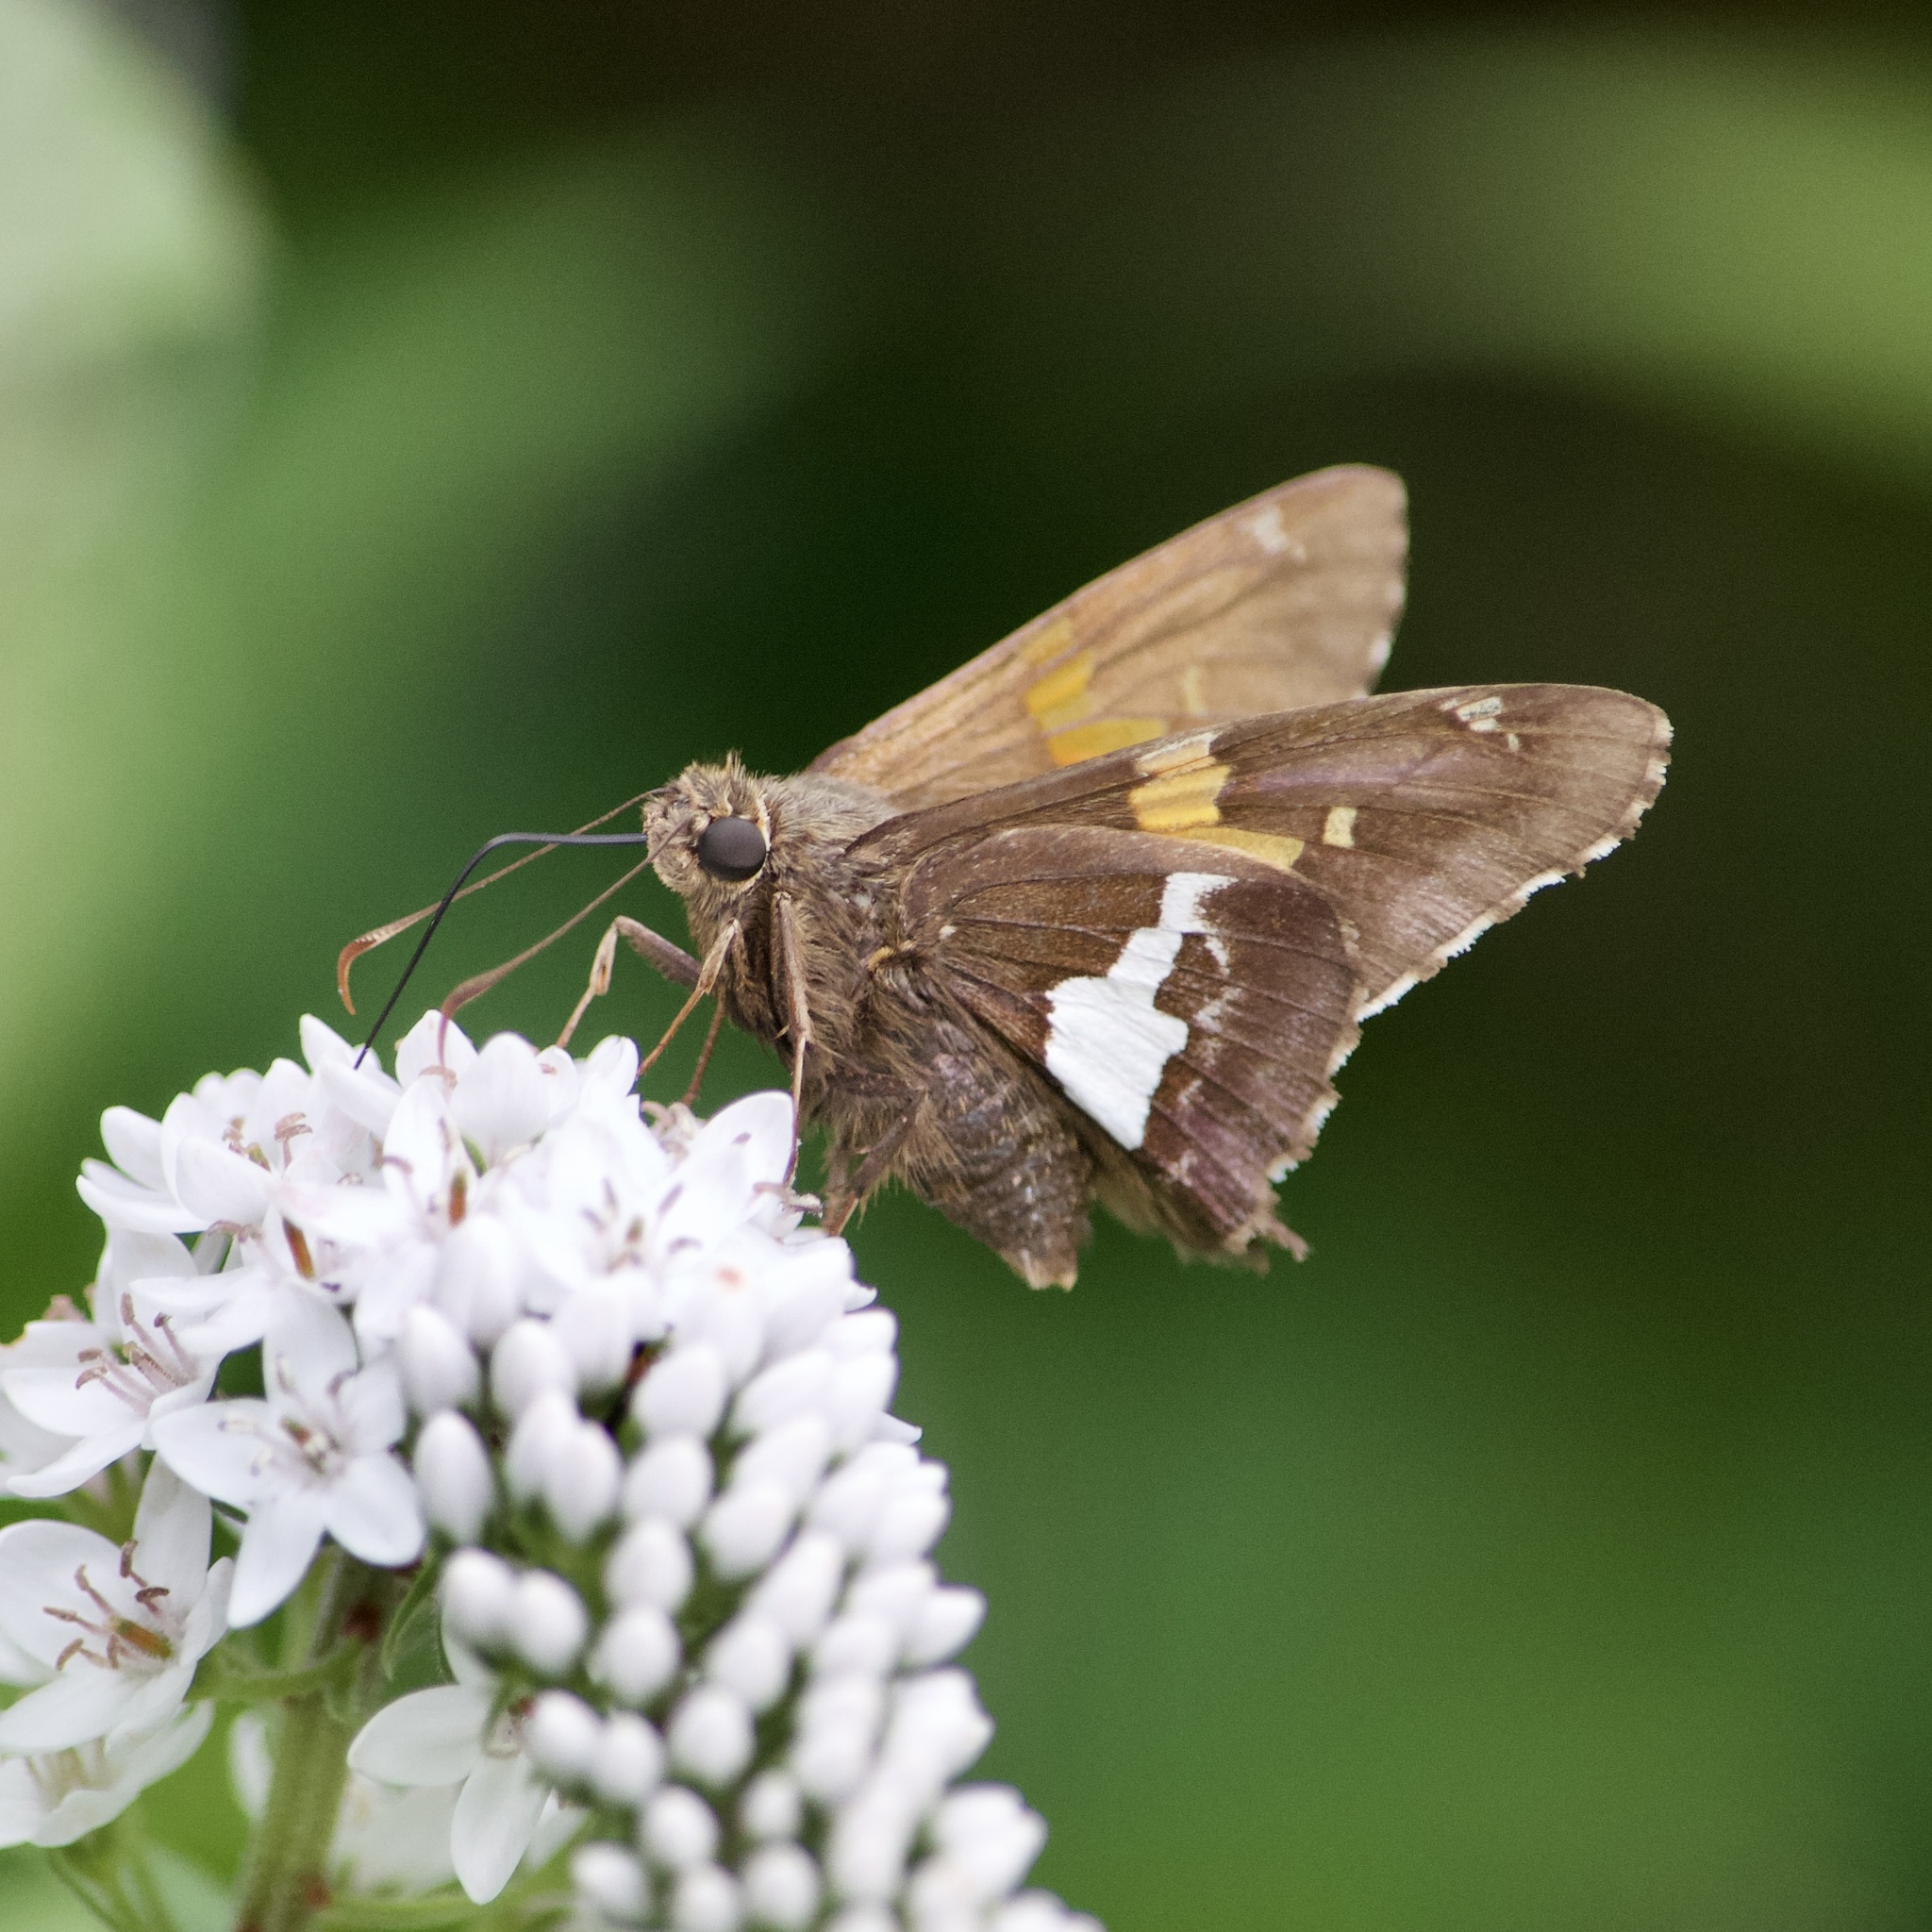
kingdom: Animalia
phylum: Arthropoda
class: Insecta
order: Lepidoptera
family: Hesperiidae
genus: Epargyreus
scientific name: Epargyreus clarus
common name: Silver-spotted skipper
